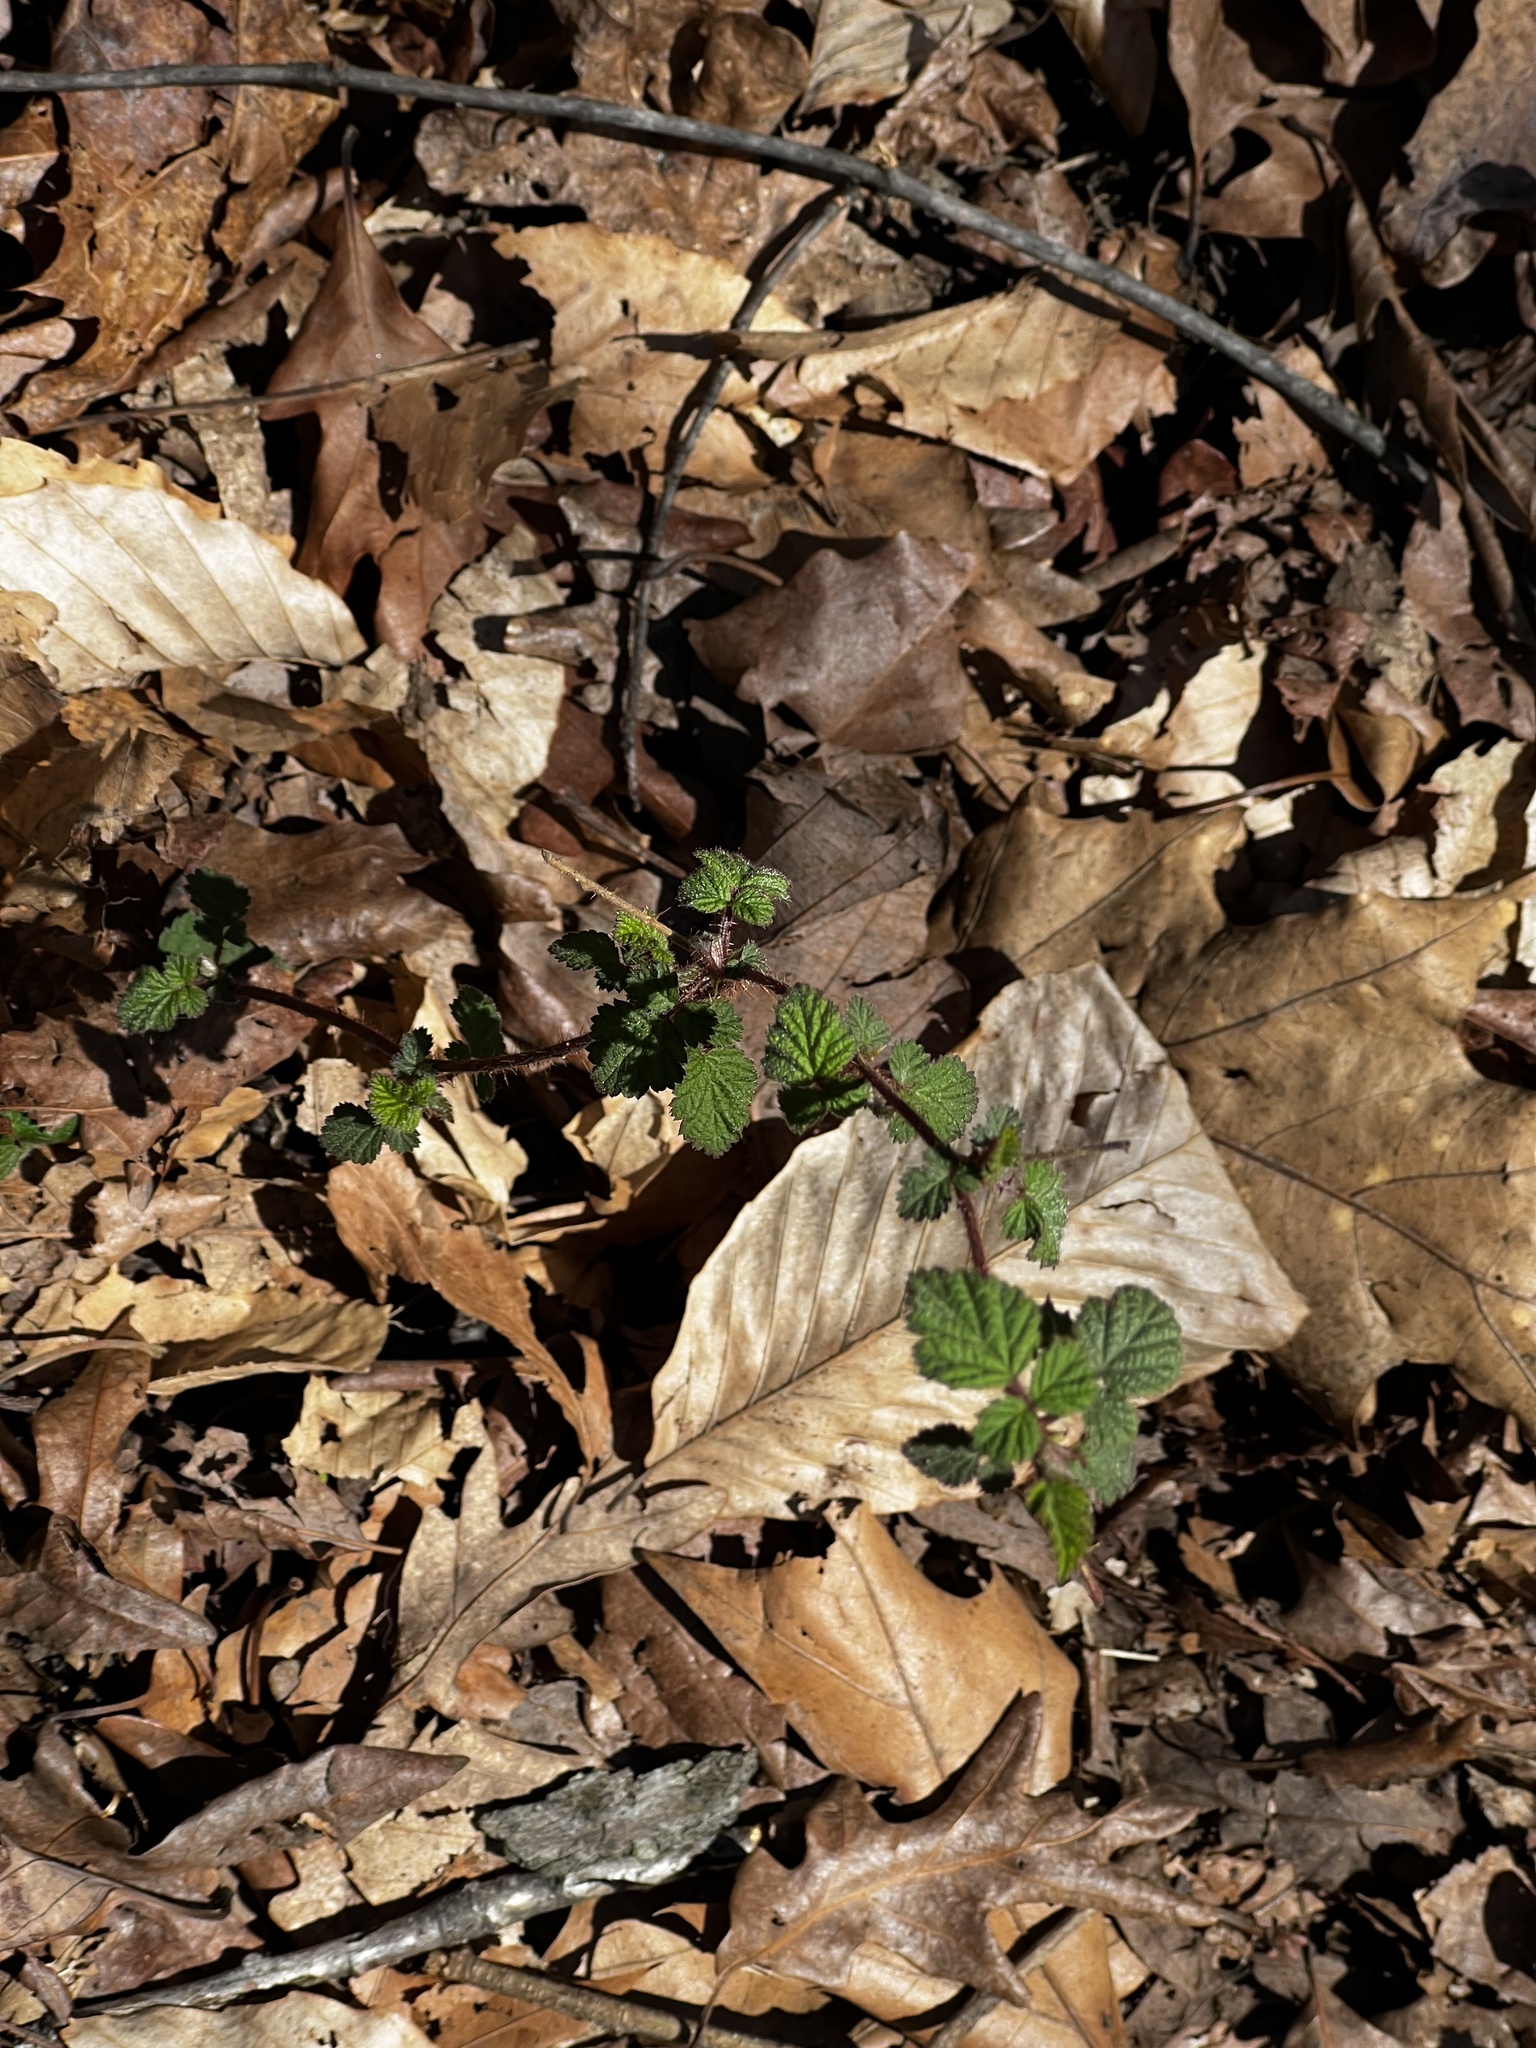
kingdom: Plantae
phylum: Tracheophyta
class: Magnoliopsida
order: Rosales
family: Rosaceae
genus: Rubus
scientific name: Rubus phoenicolasius
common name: Japanese wineberry
